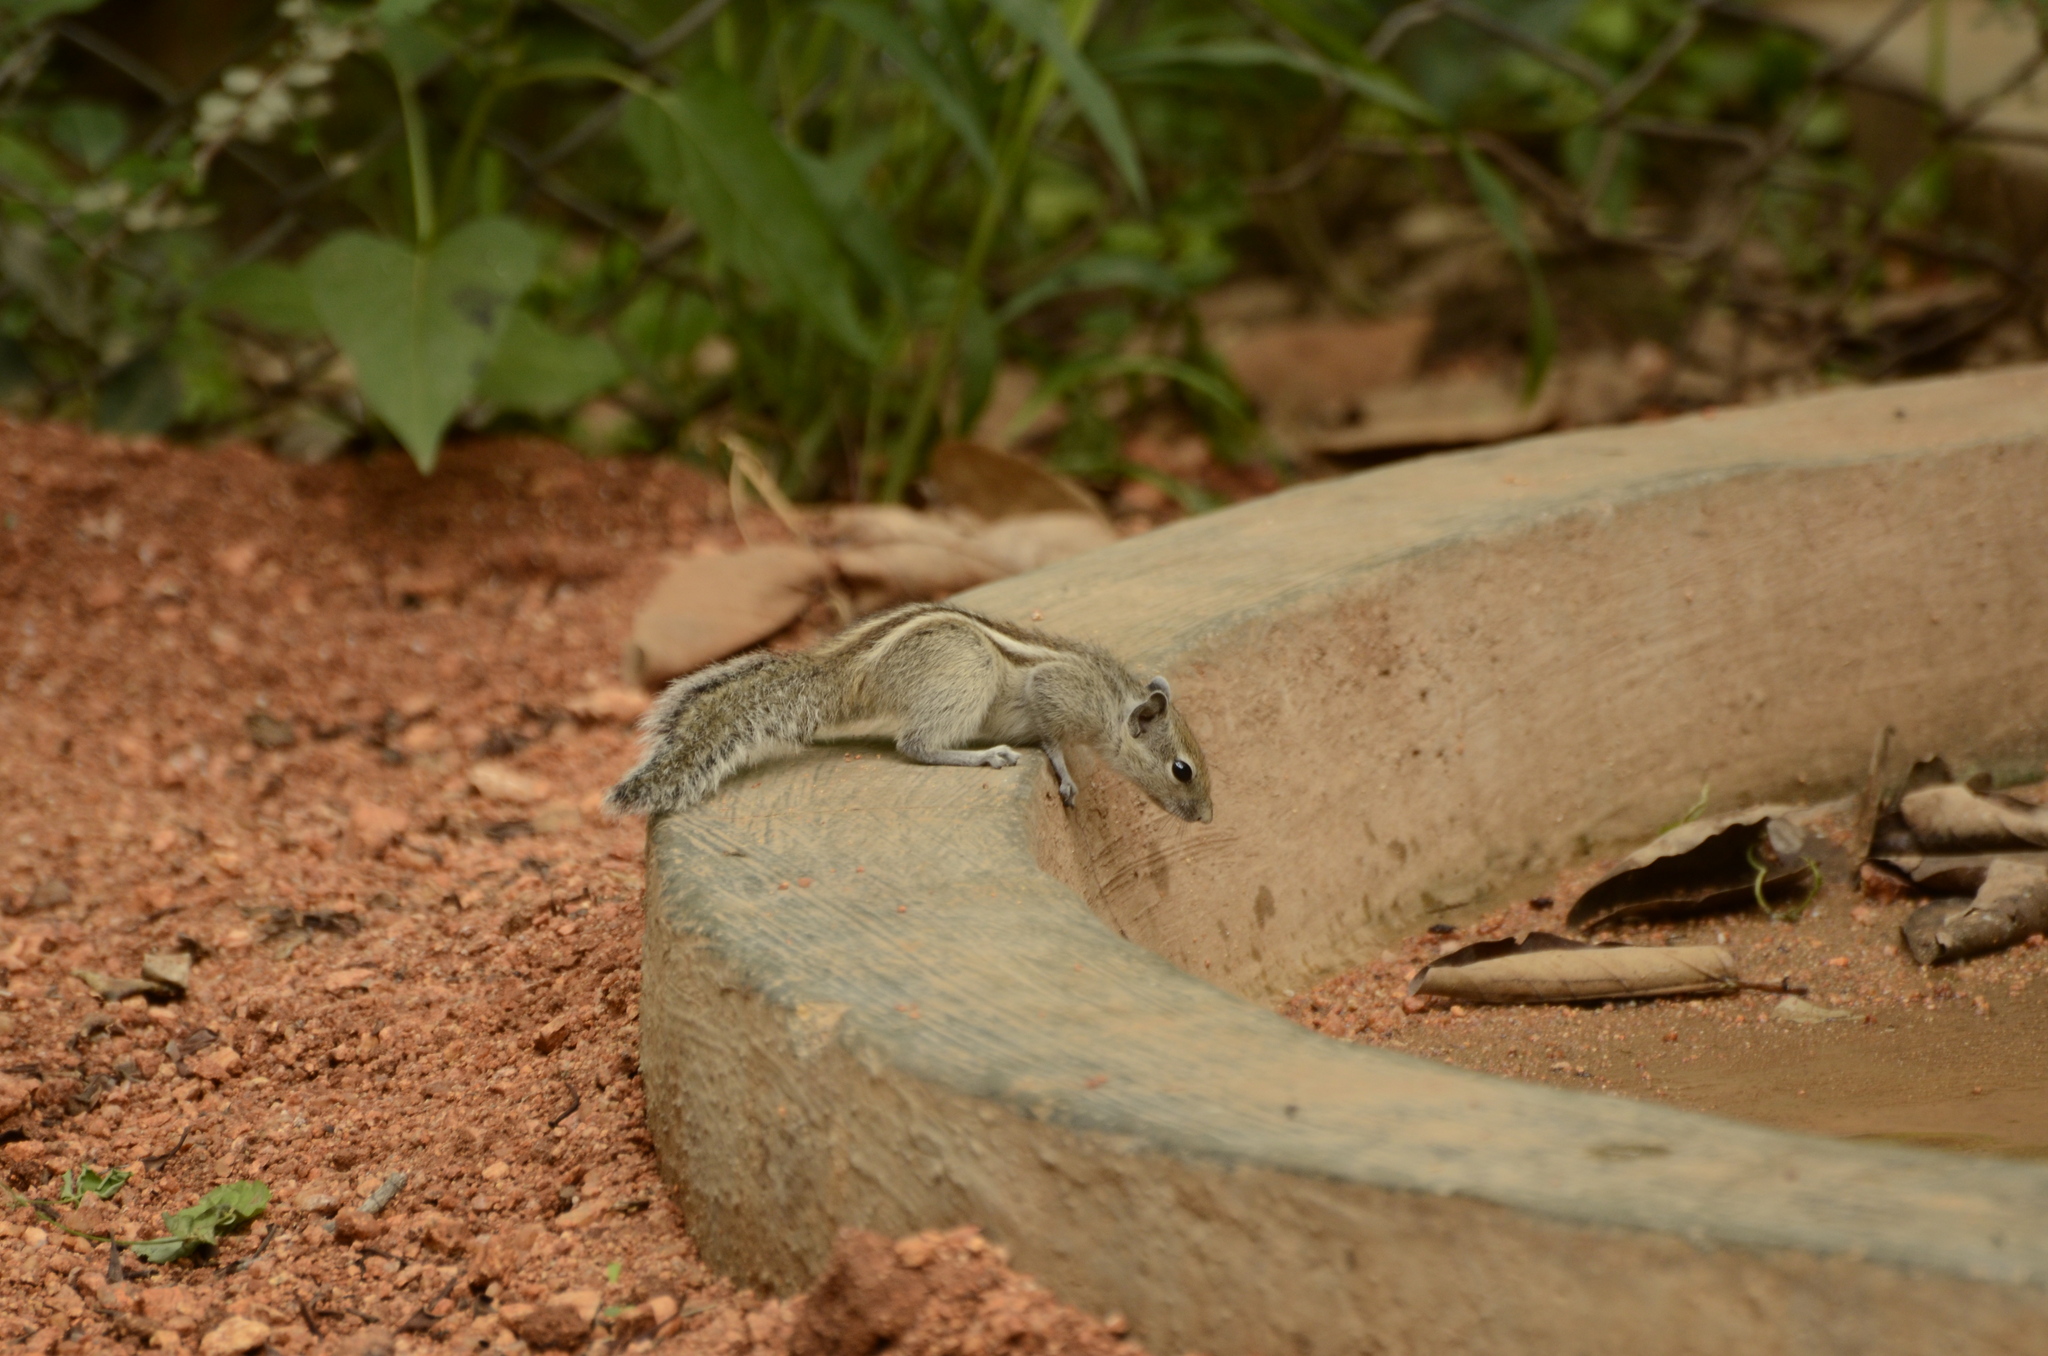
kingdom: Animalia
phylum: Chordata
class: Mammalia
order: Rodentia
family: Sciuridae
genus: Funambulus
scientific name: Funambulus palmarum
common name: Indian palm squirrel
